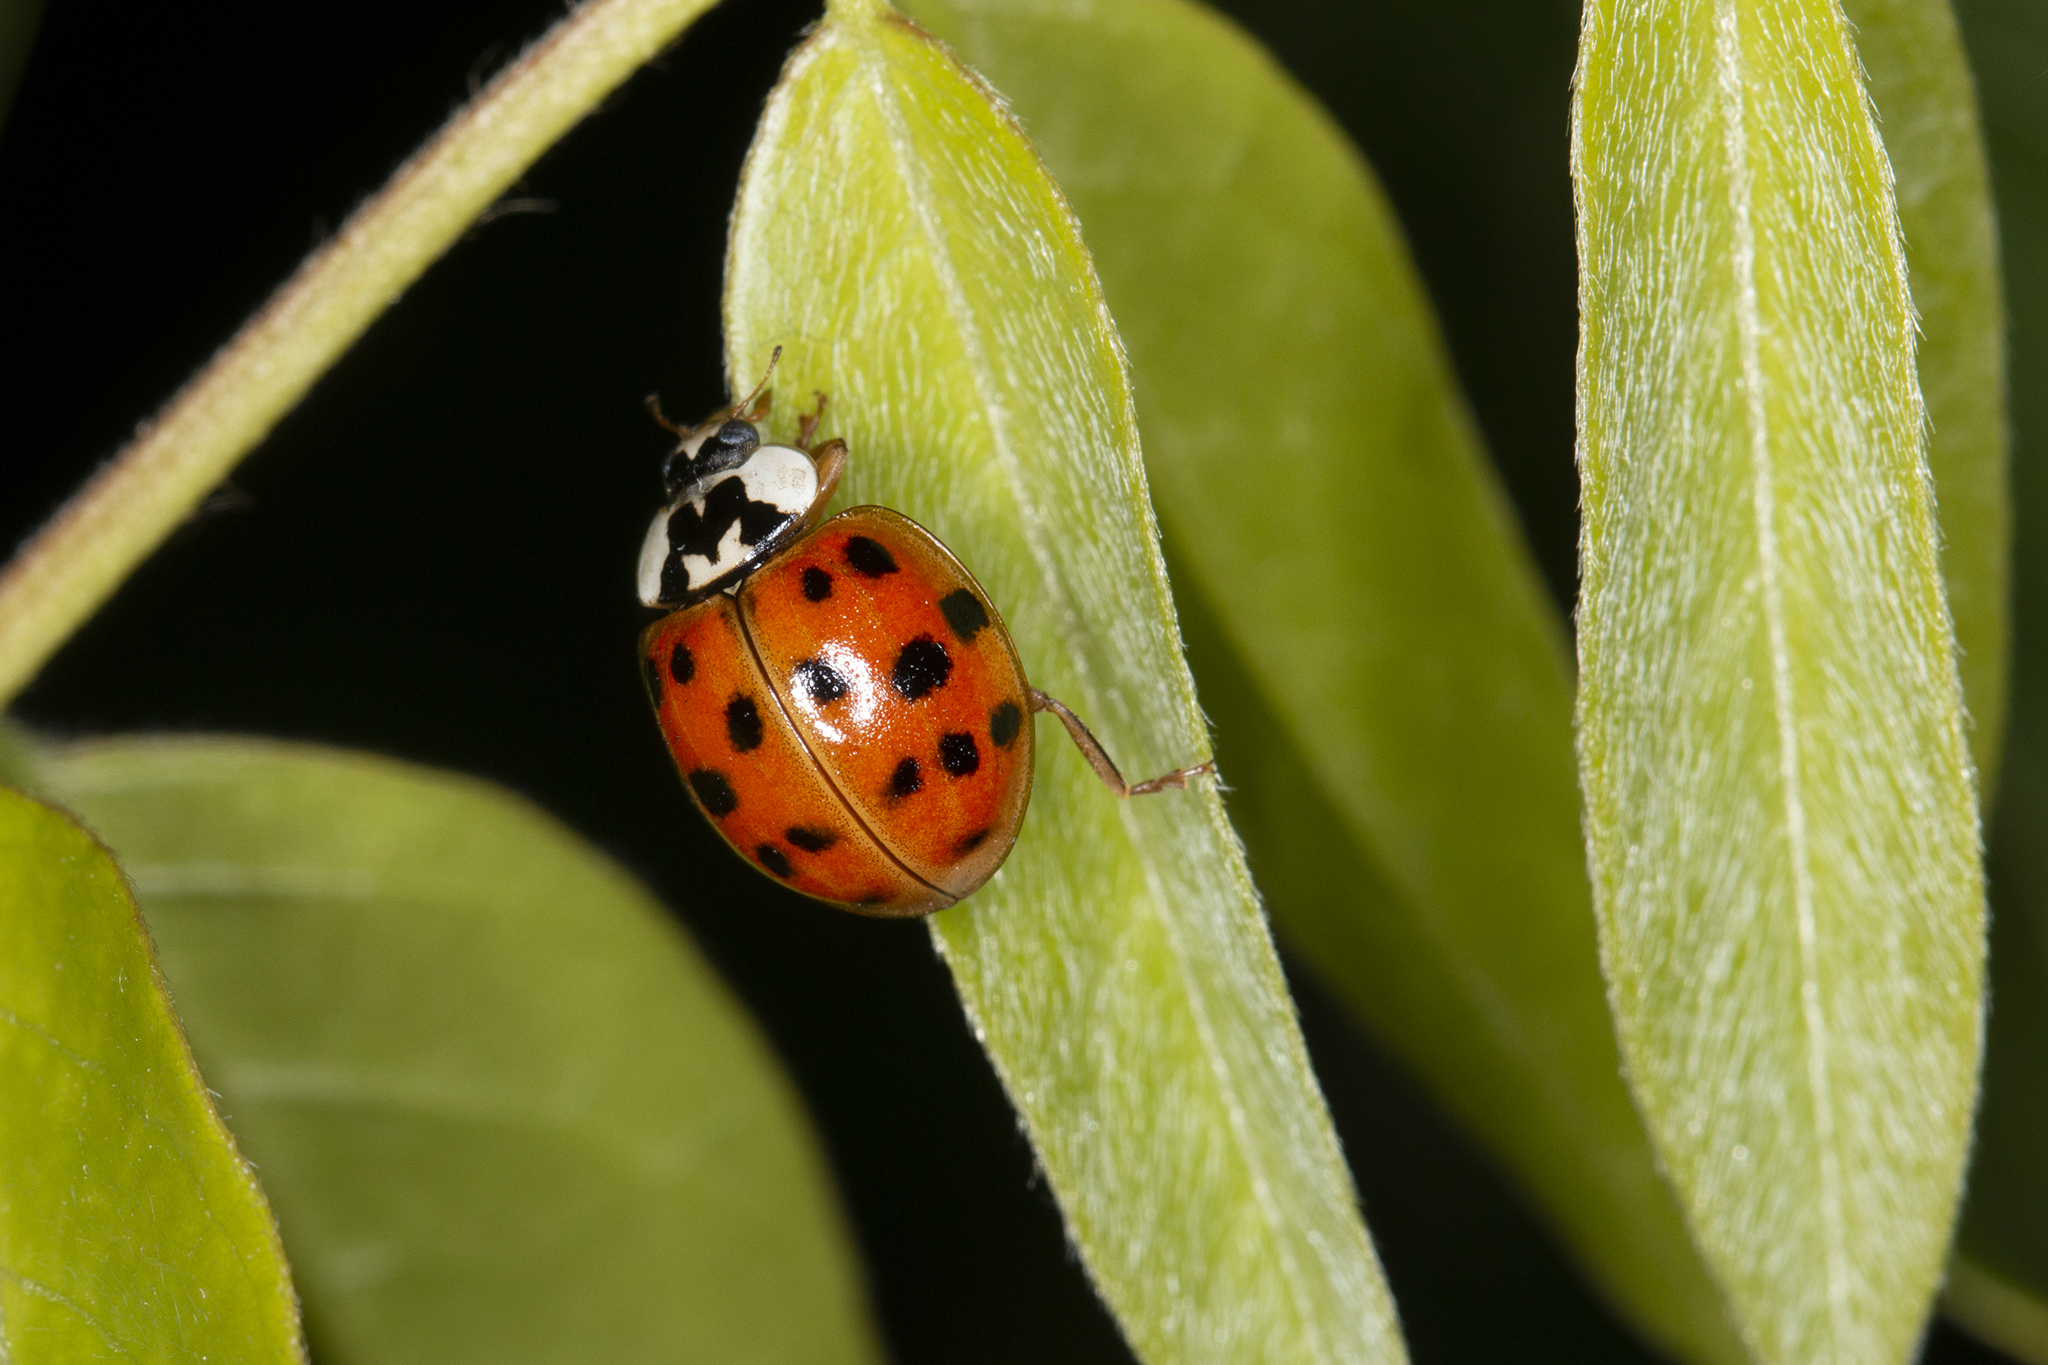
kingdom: Animalia
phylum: Arthropoda
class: Insecta
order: Coleoptera
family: Coccinellidae
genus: Harmonia
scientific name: Harmonia axyridis
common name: Harlequin ladybird
